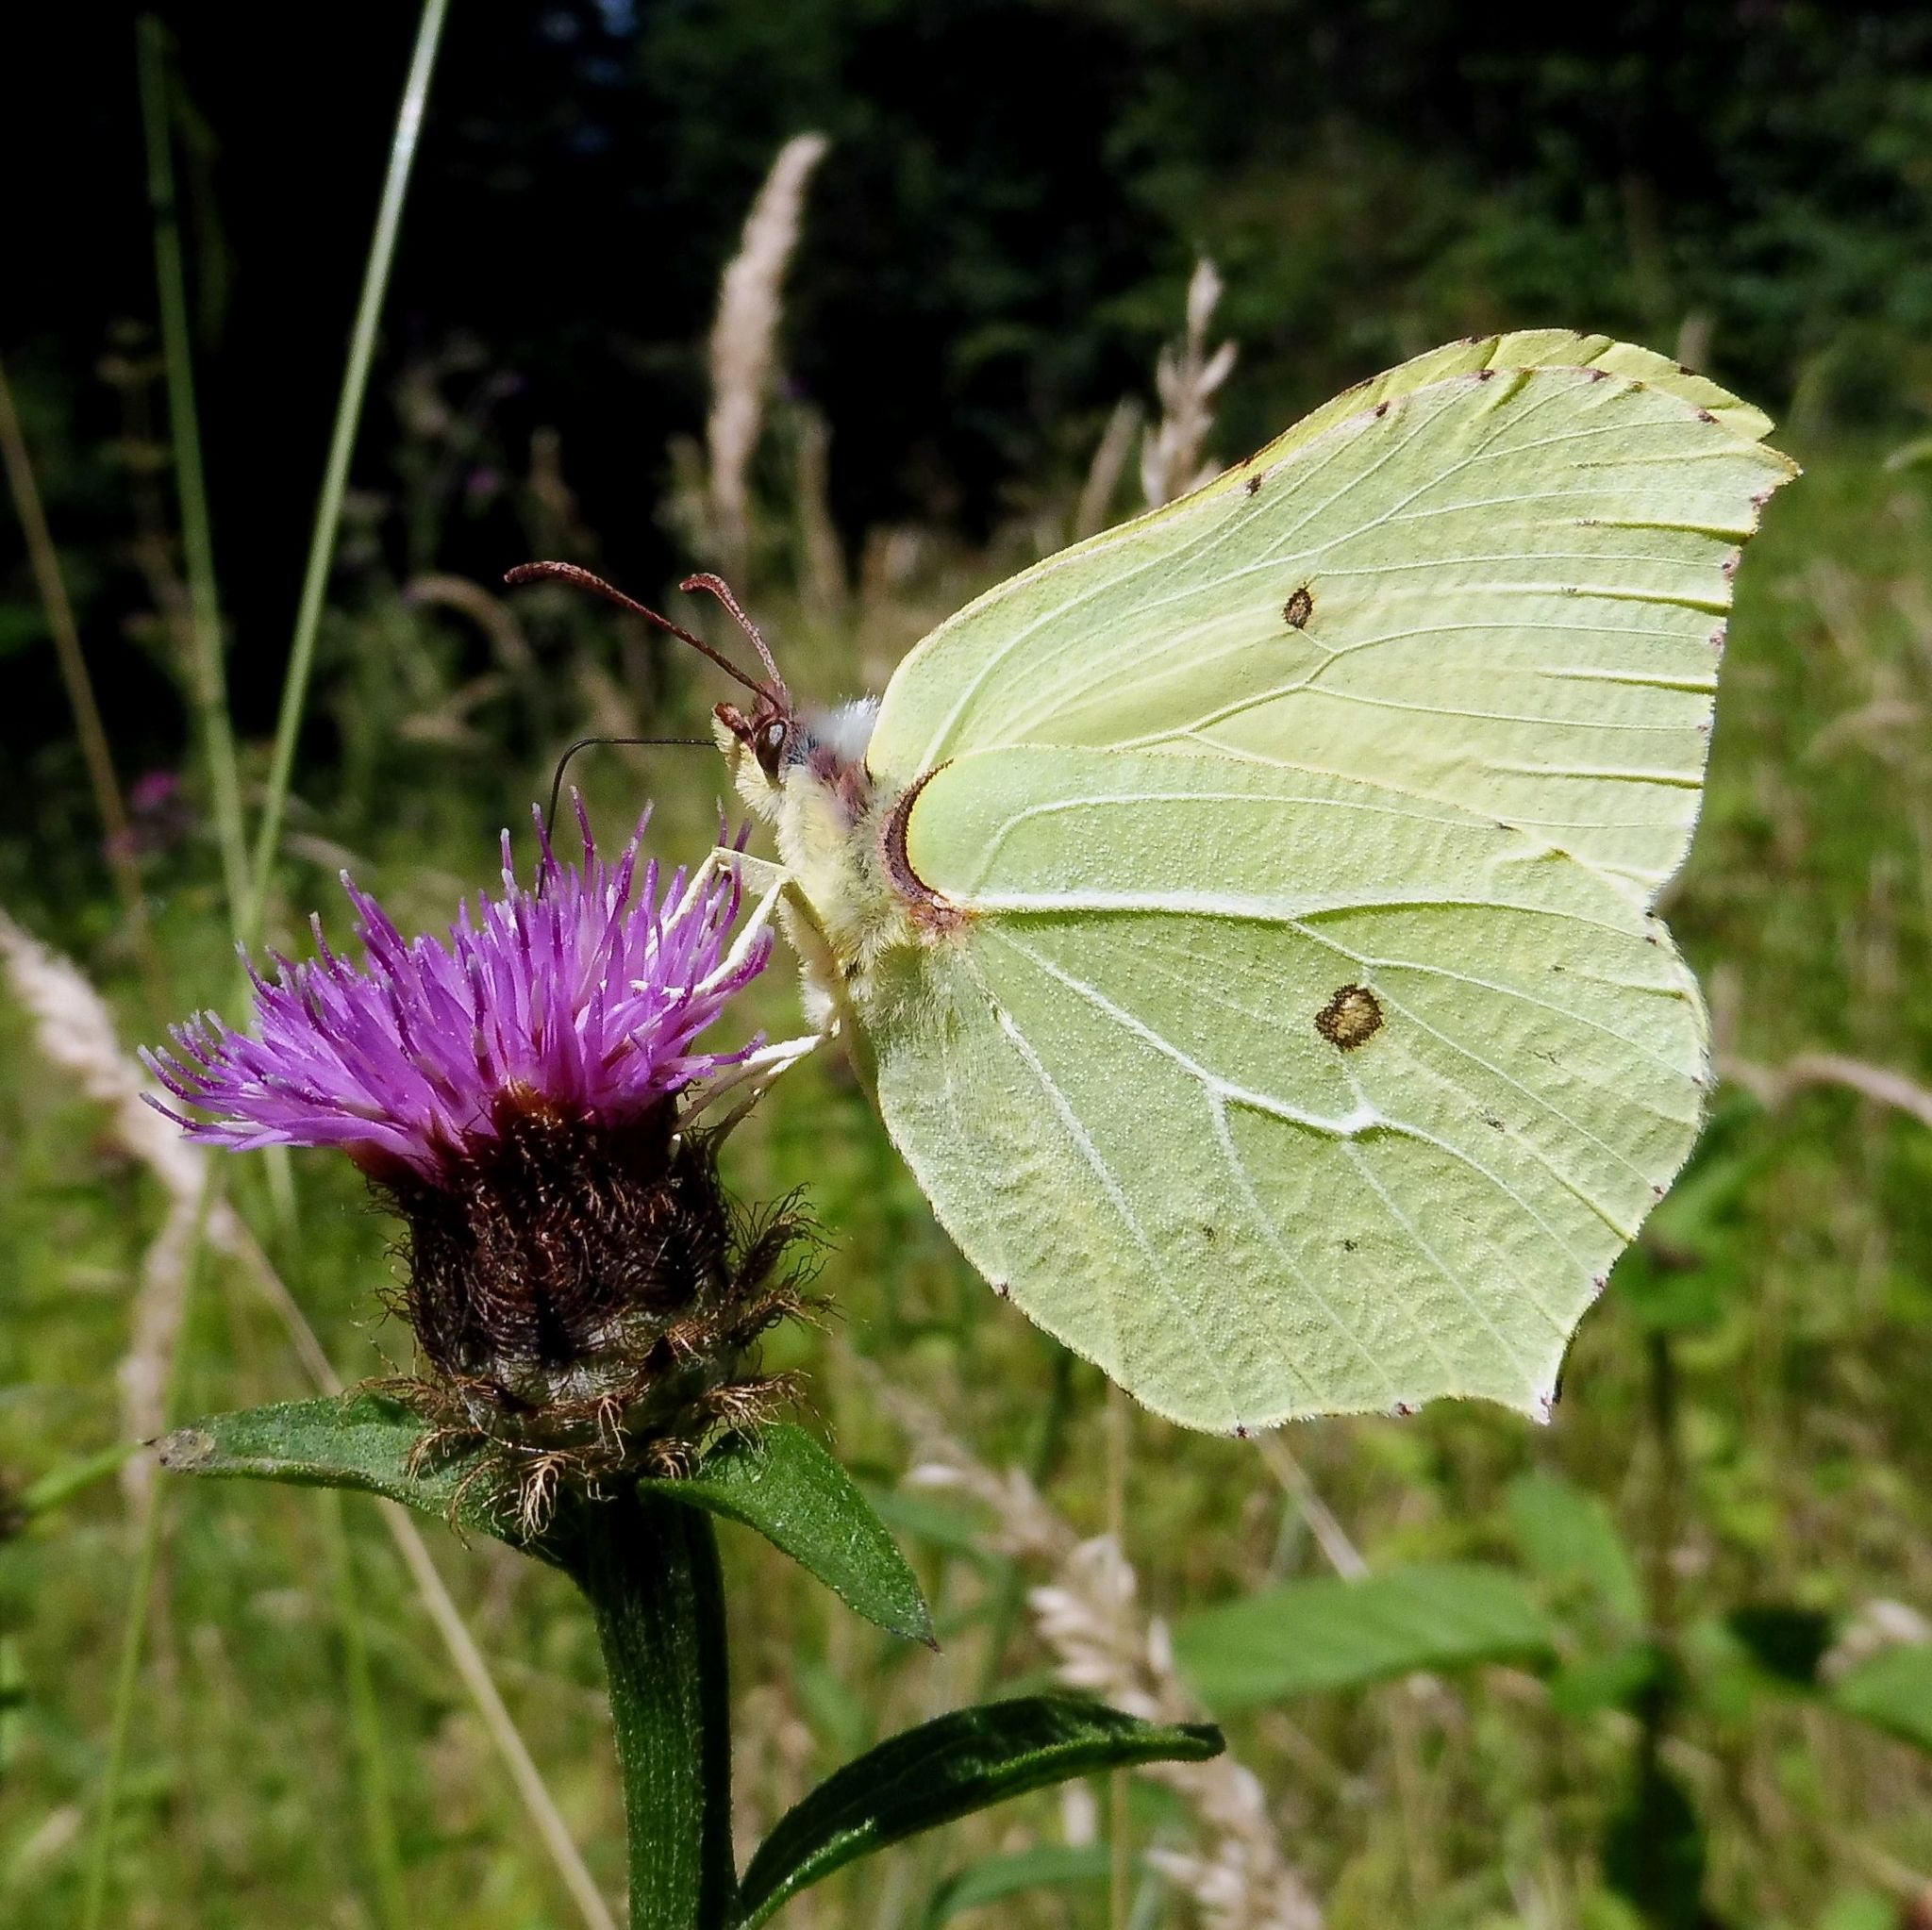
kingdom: Animalia
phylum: Arthropoda
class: Insecta
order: Lepidoptera
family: Pieridae
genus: Gonepteryx
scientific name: Gonepteryx rhamni
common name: Brimstone
